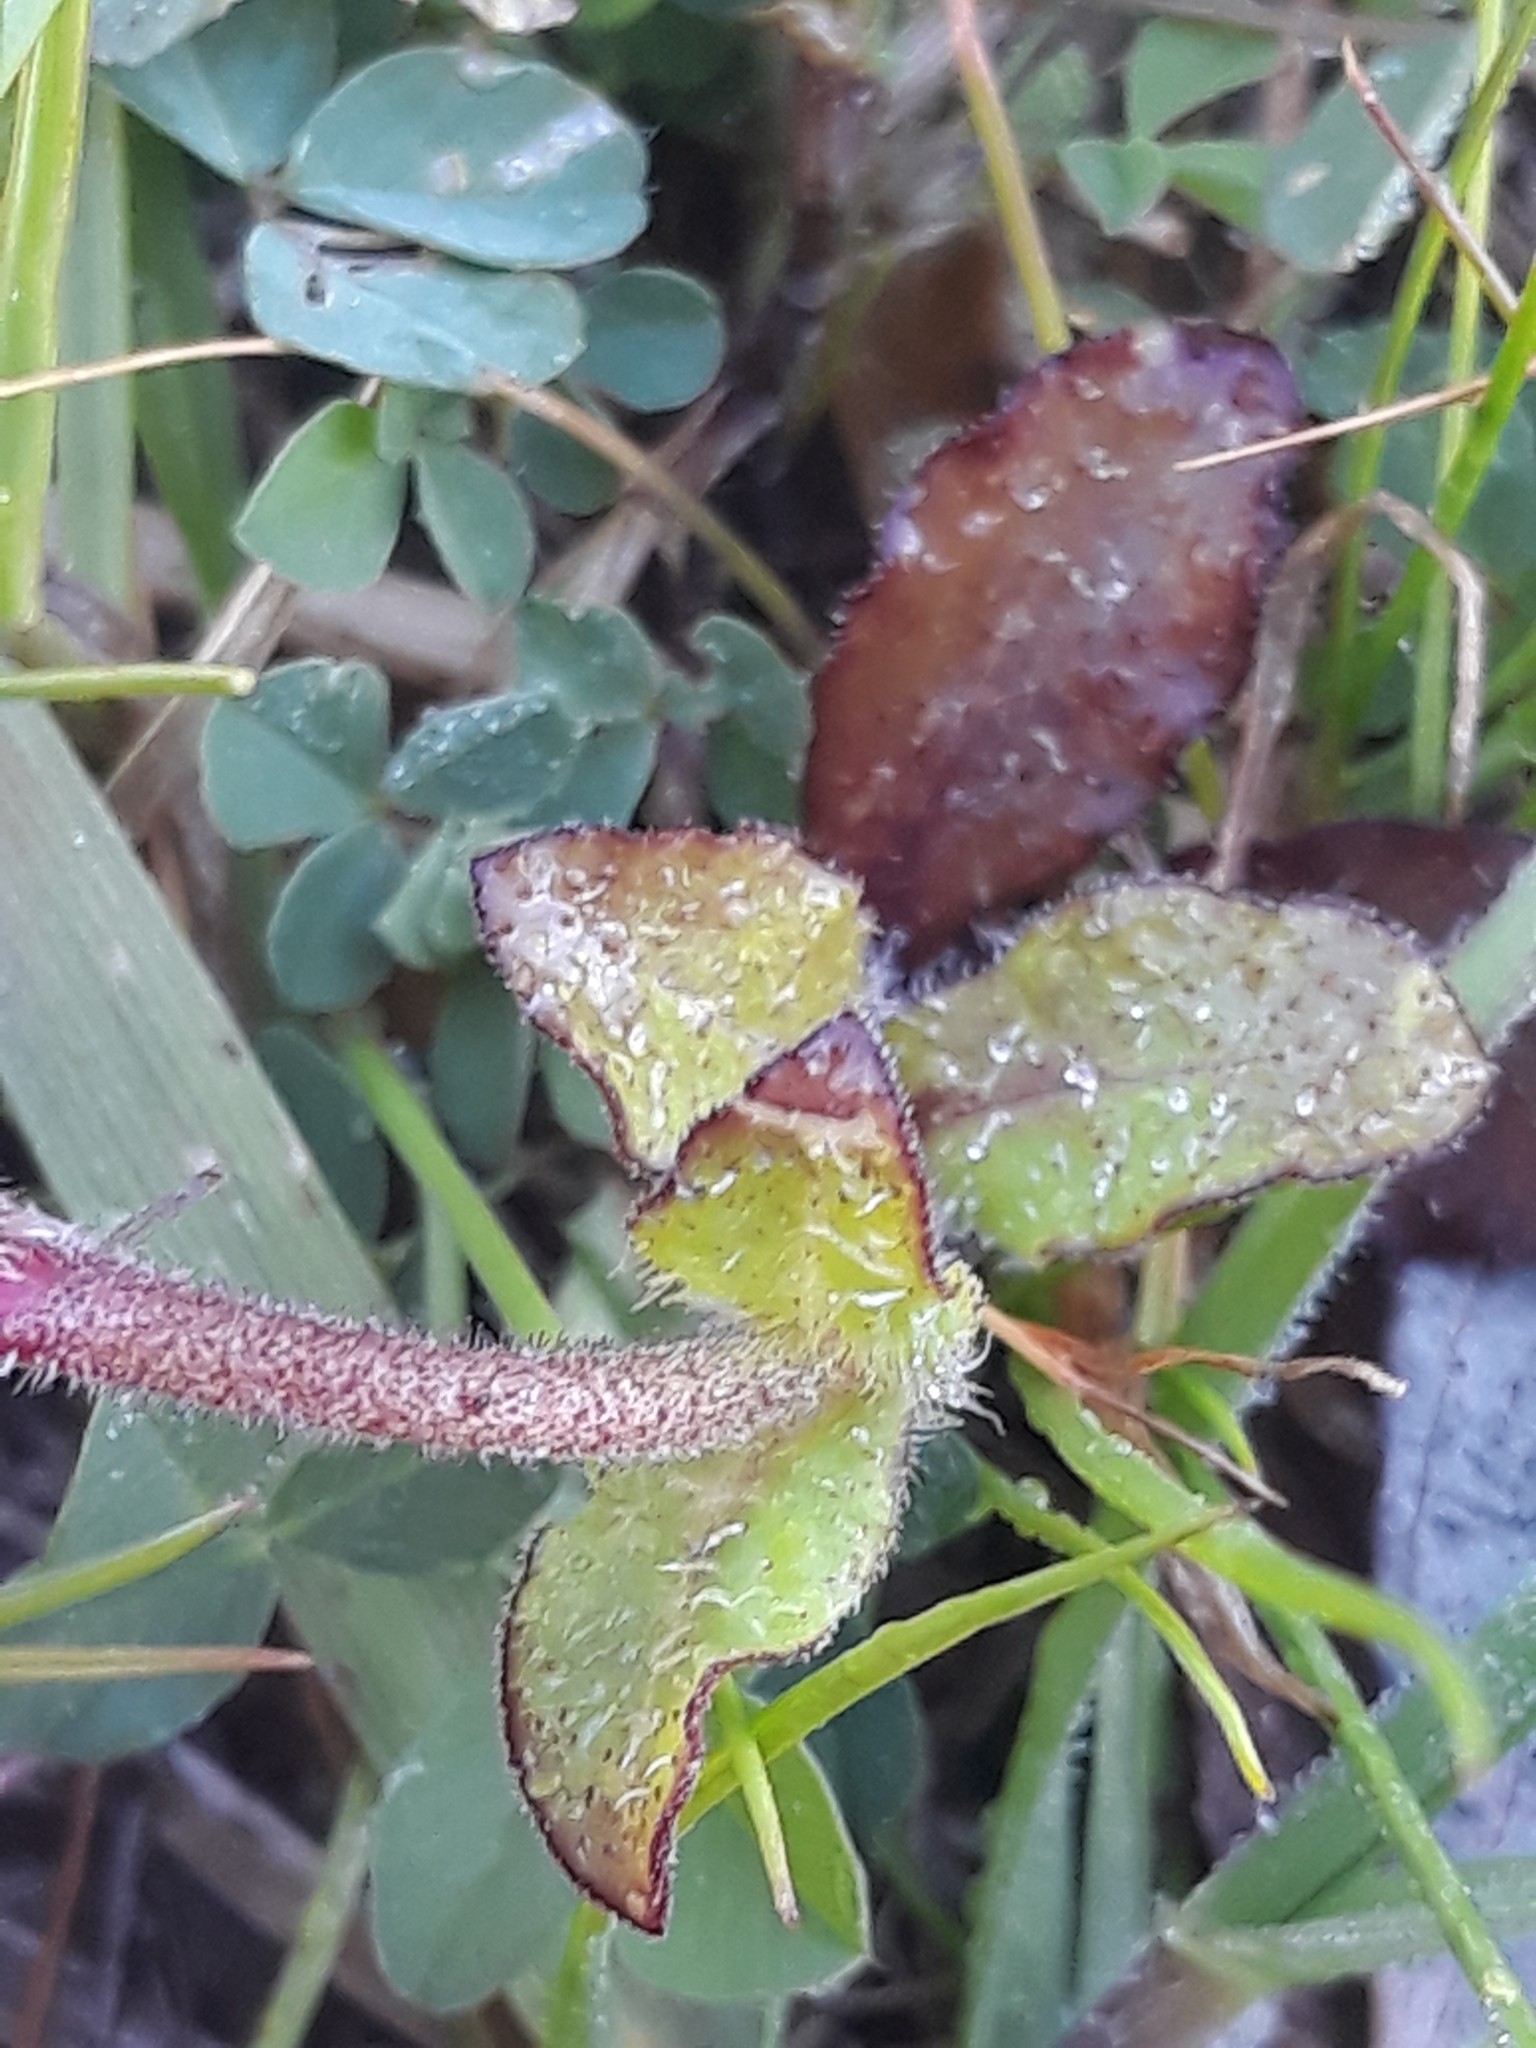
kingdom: Plantae
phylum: Tracheophyta
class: Magnoliopsida
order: Caryophyllales
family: Caryophyllaceae
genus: Silene
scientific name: Silene fuscata
